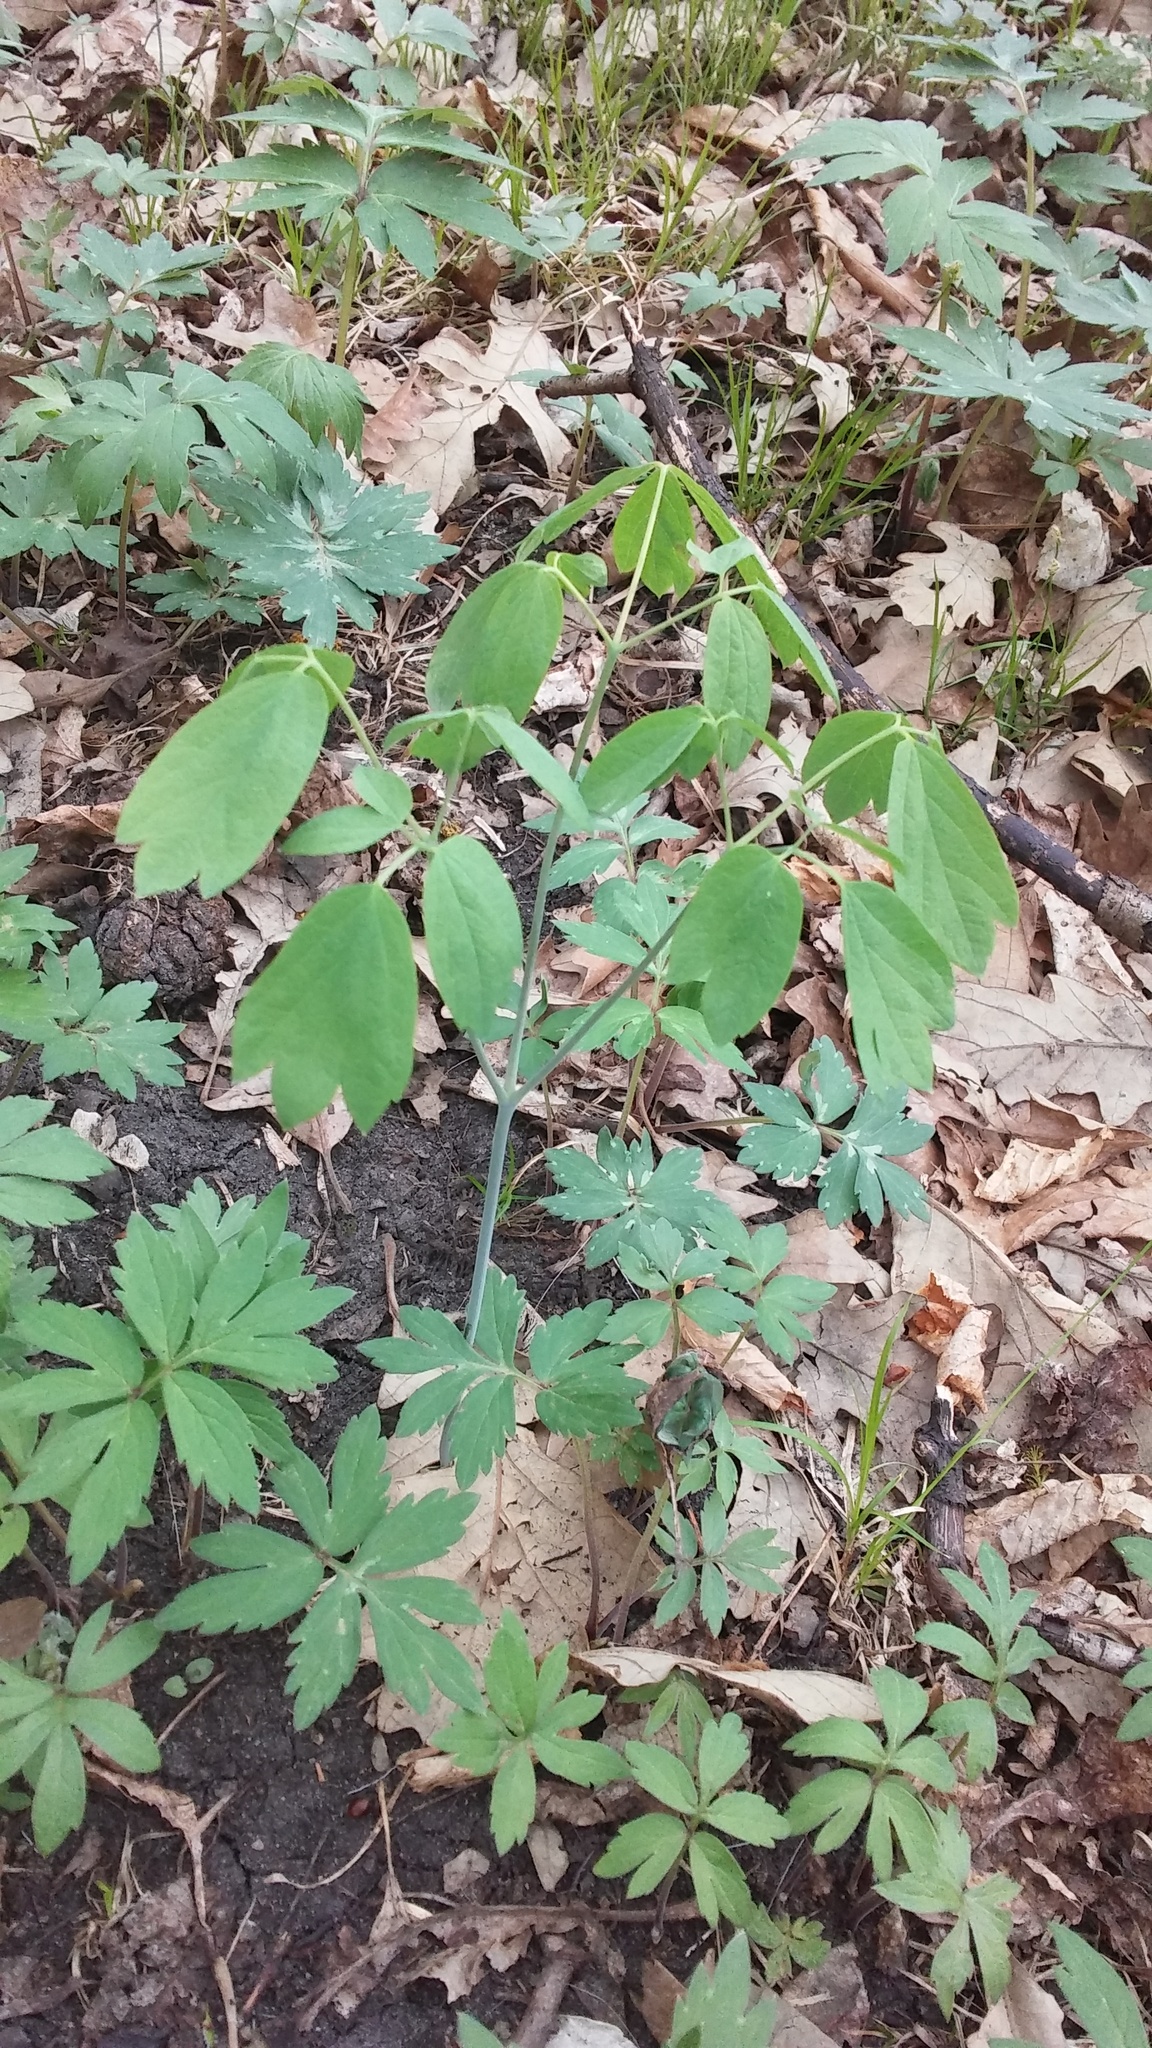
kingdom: Plantae
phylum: Tracheophyta
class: Magnoliopsida
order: Ranunculales
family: Berberidaceae
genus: Caulophyllum
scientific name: Caulophyllum thalictroides
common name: Blue cohosh
